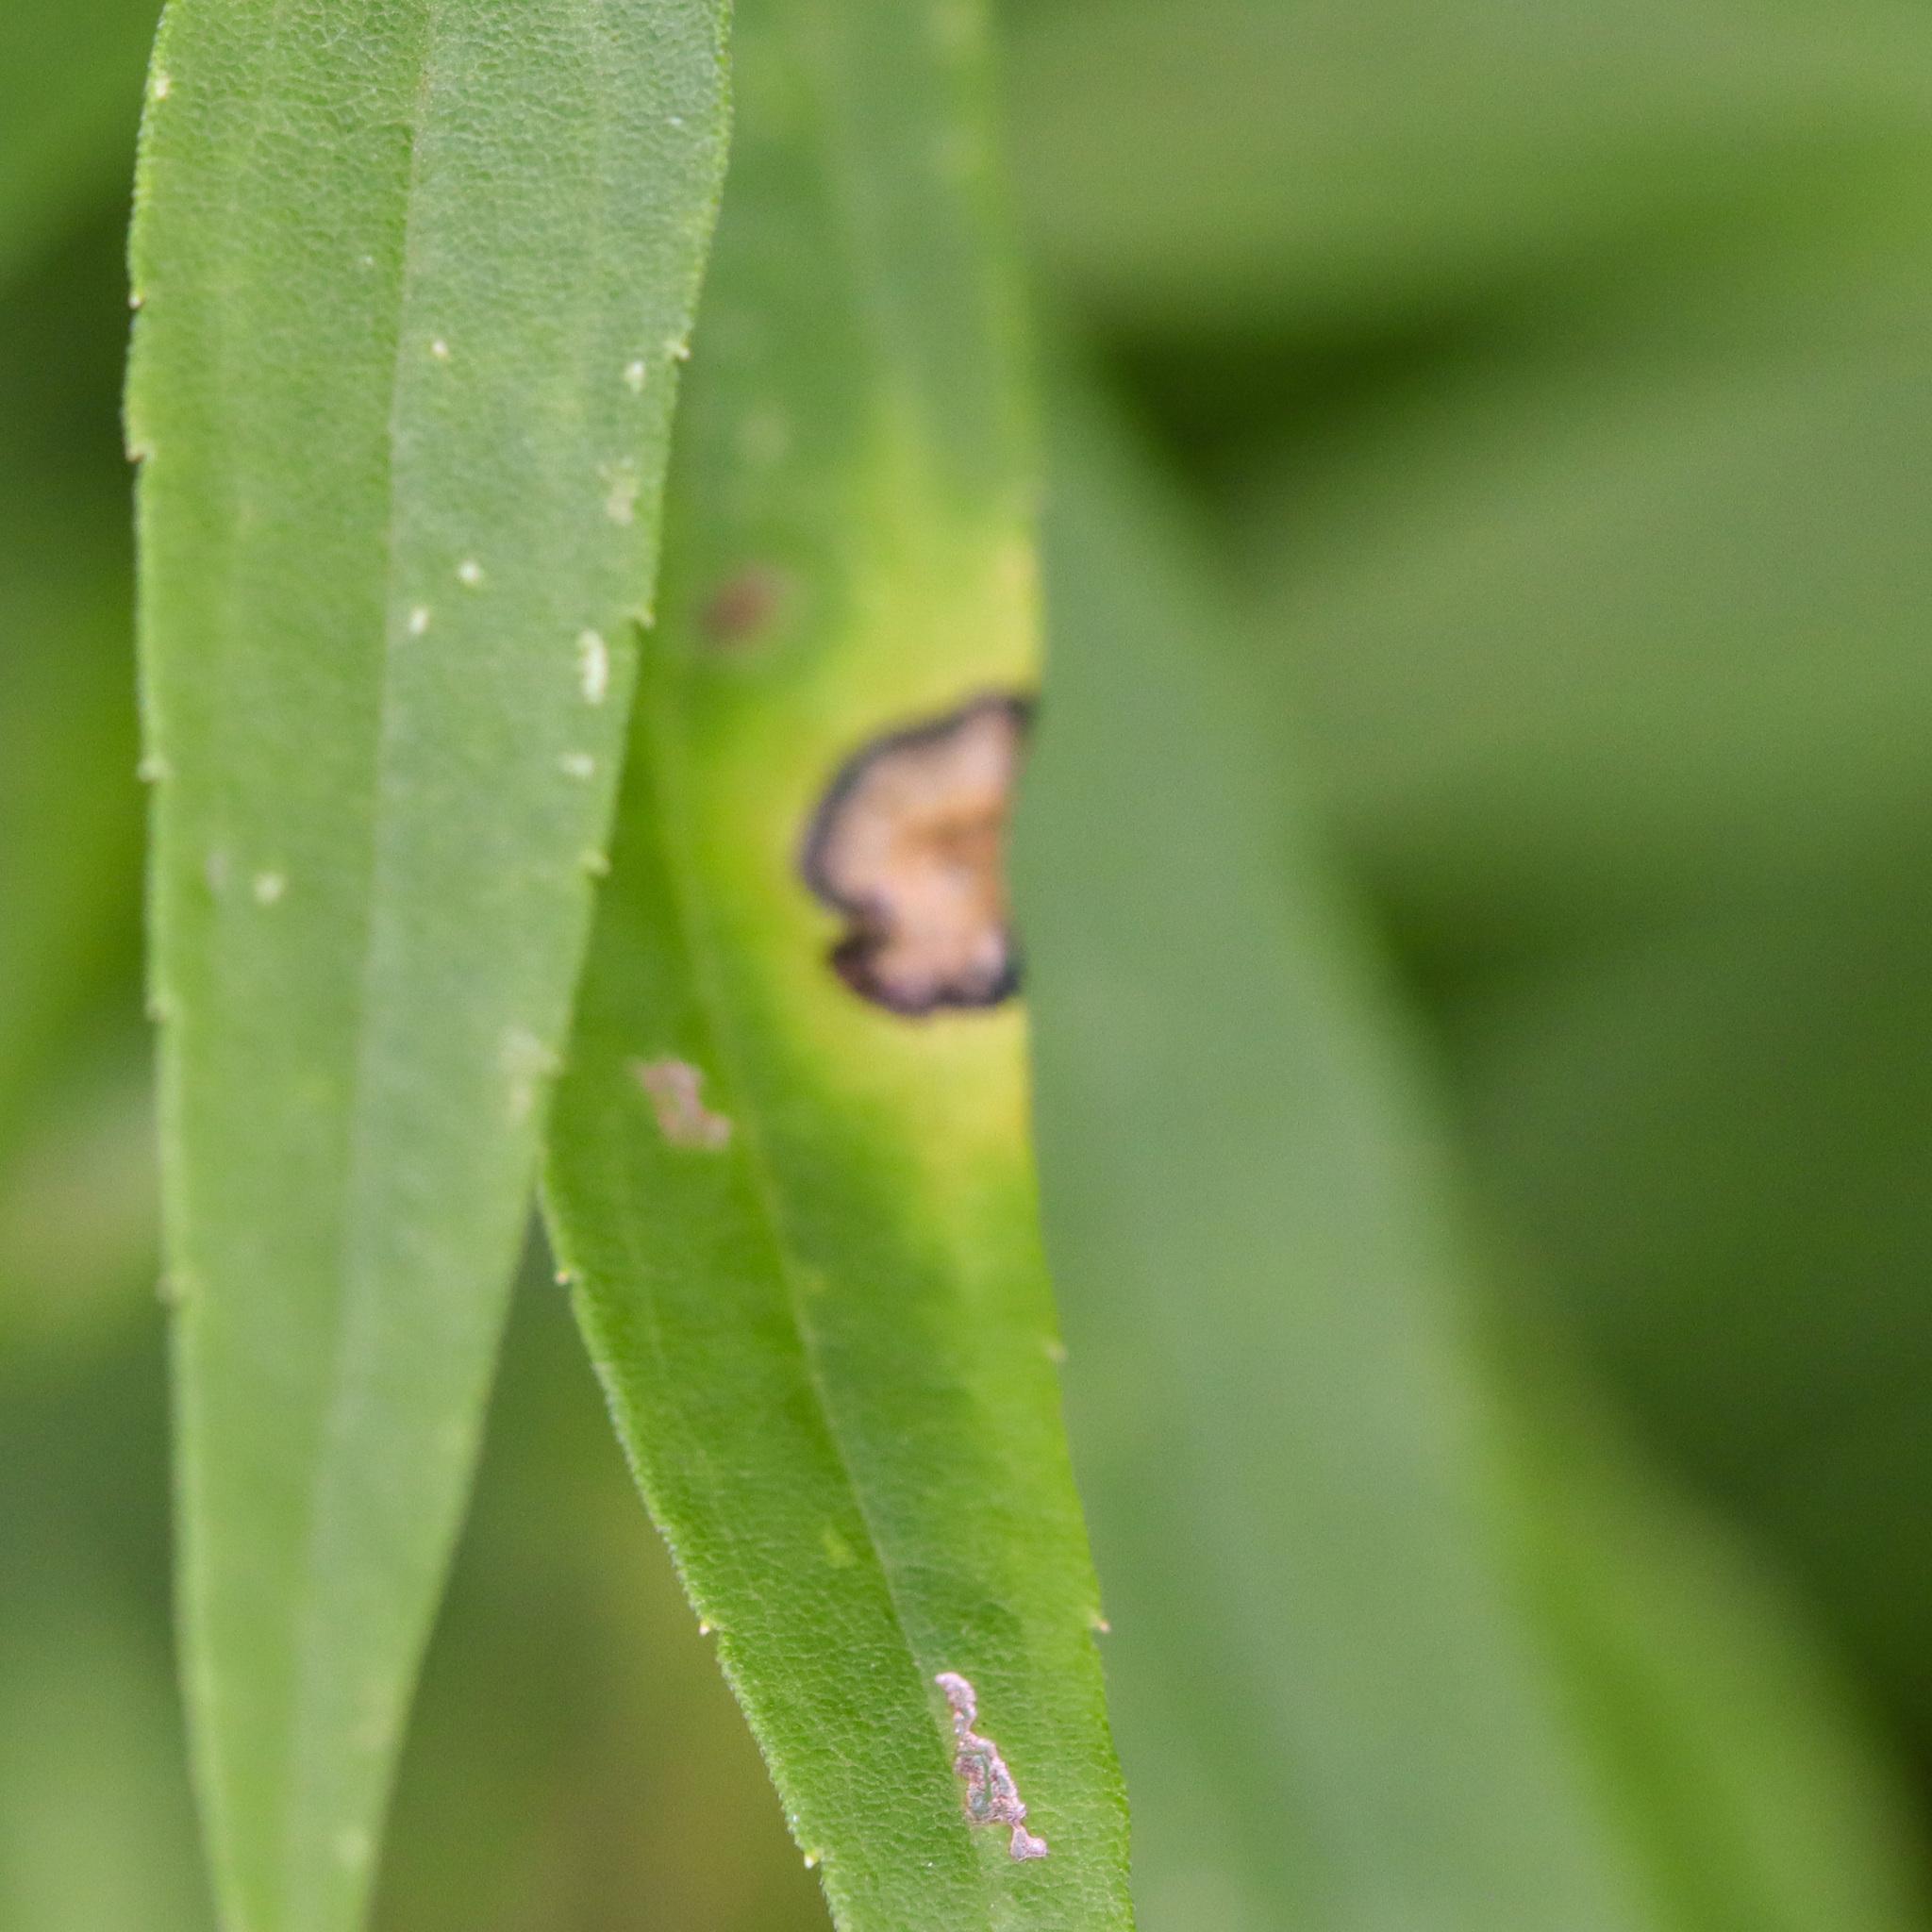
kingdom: Animalia
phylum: Arthropoda
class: Insecta
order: Diptera
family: Cecidomyiidae
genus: Asteromyia
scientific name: Asteromyia carbonifera
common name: Carbonifera goldenrod gall midge
